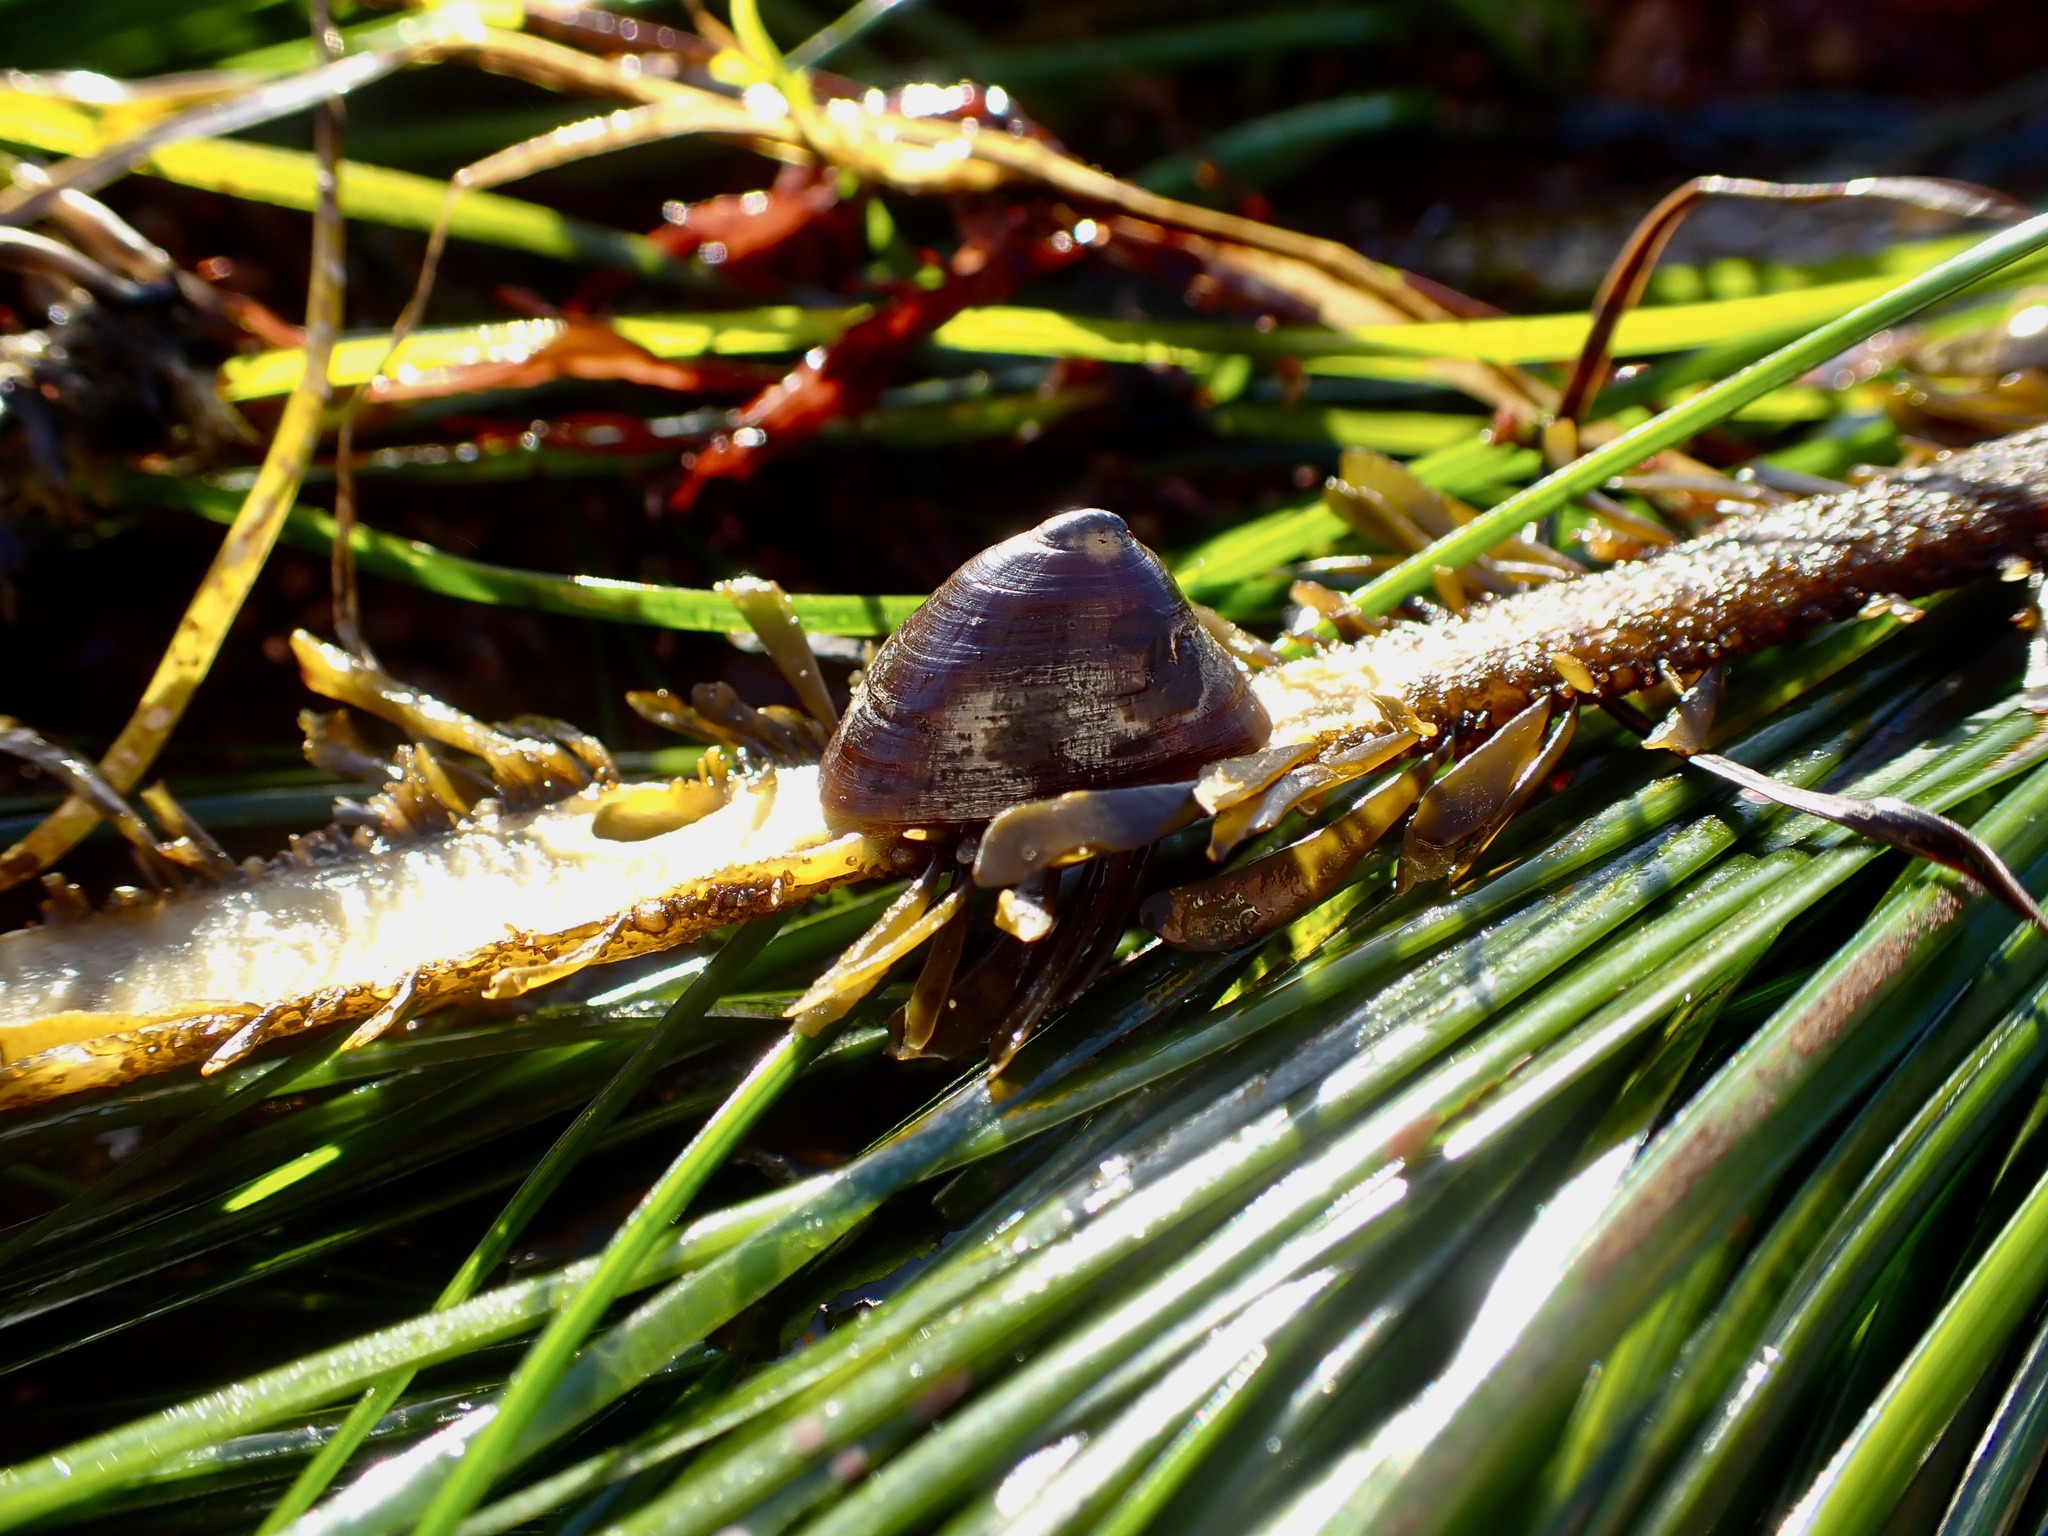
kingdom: Animalia
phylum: Mollusca
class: Gastropoda
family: Lottiidae
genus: Discurria
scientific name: Discurria insessa
